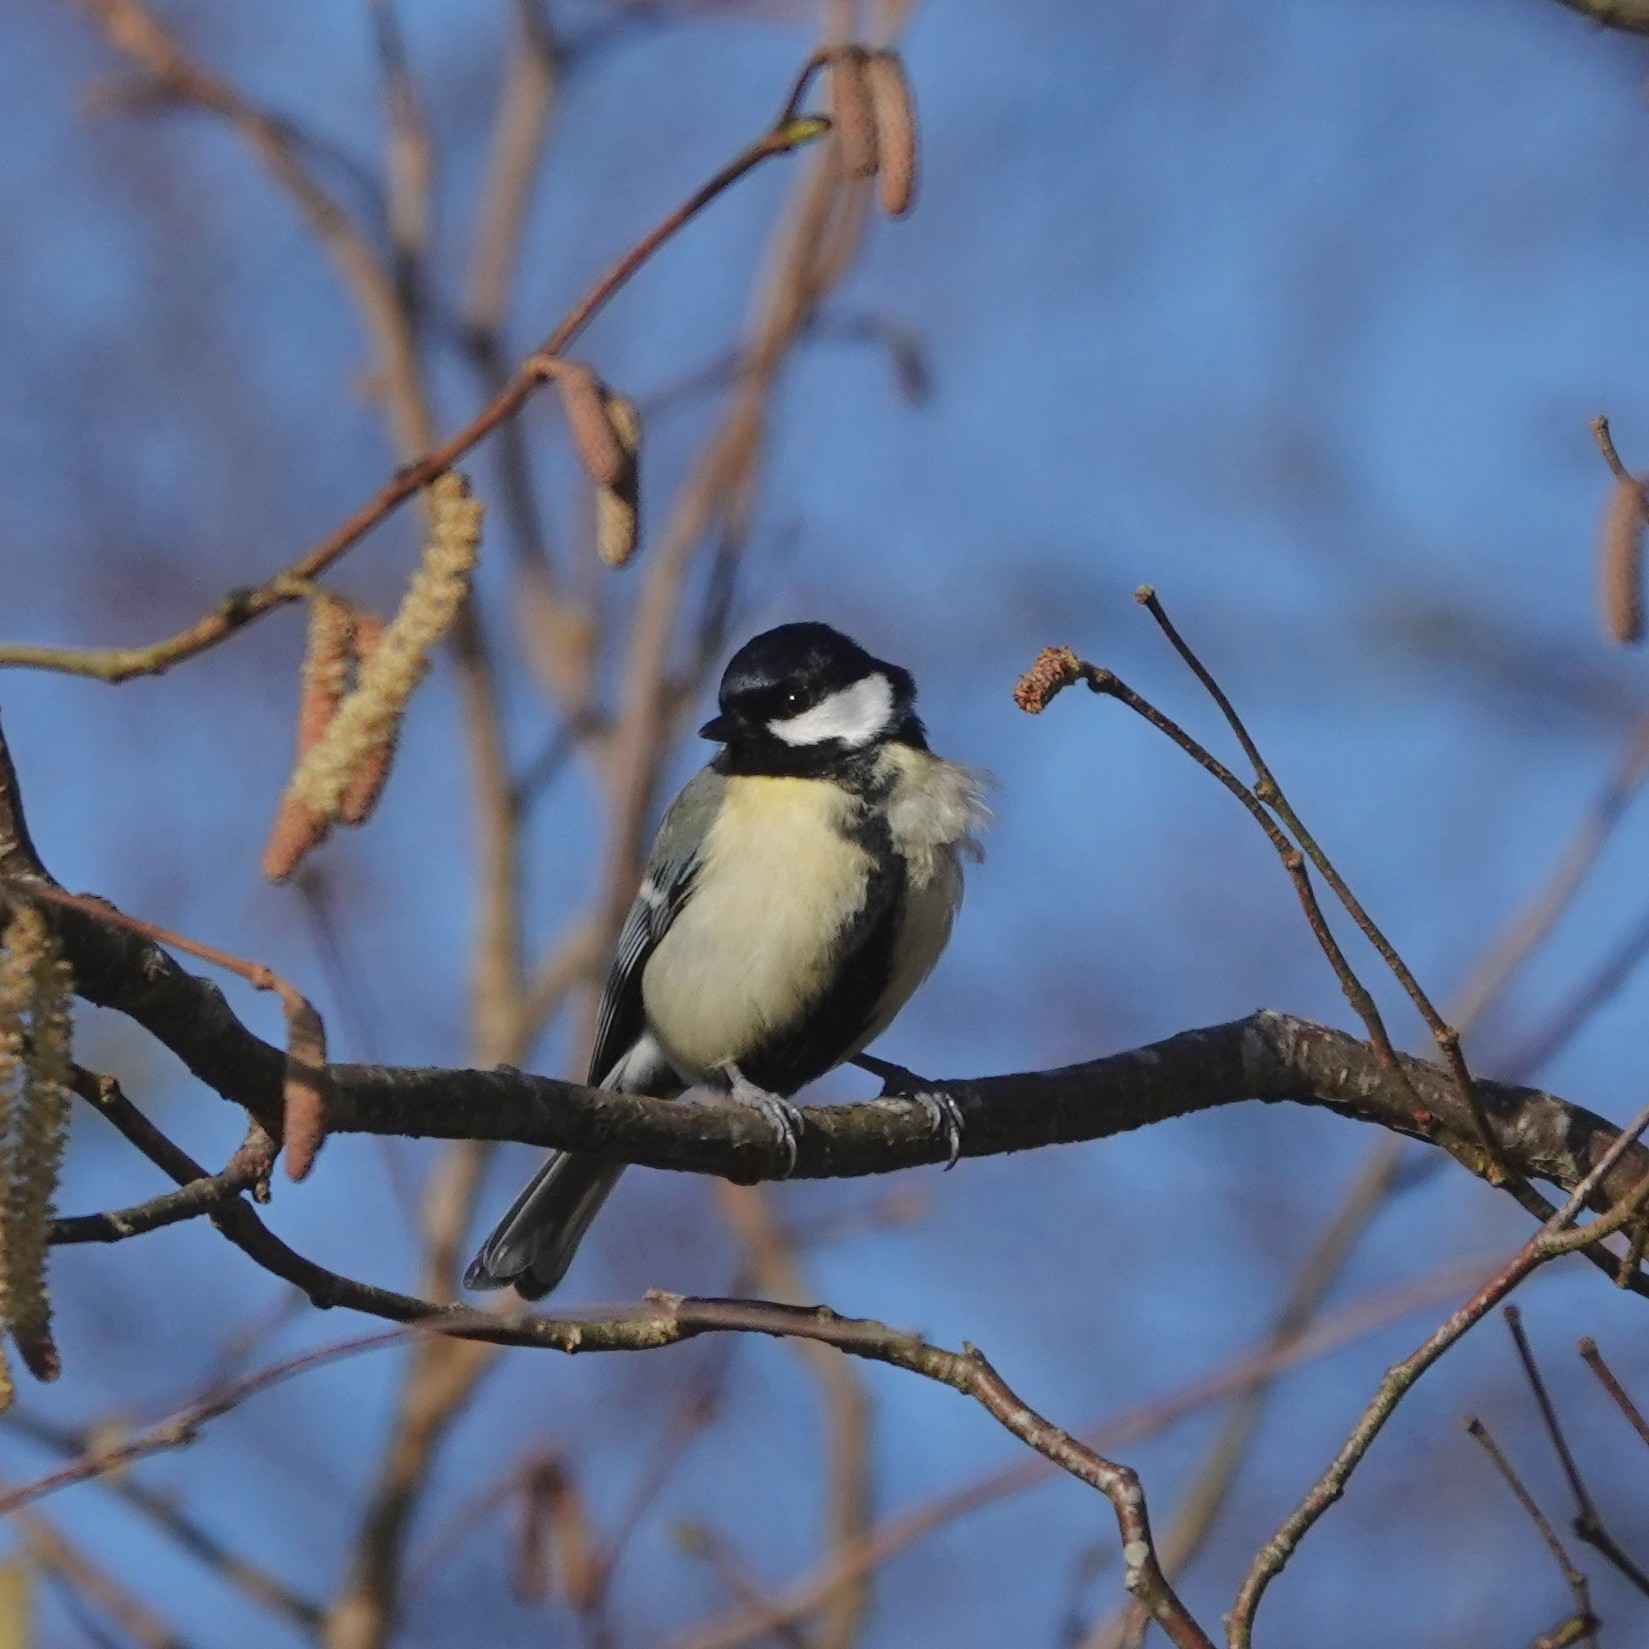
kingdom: Animalia
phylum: Chordata
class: Aves
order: Passeriformes
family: Paridae
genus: Parus
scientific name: Parus major
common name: Great tit
